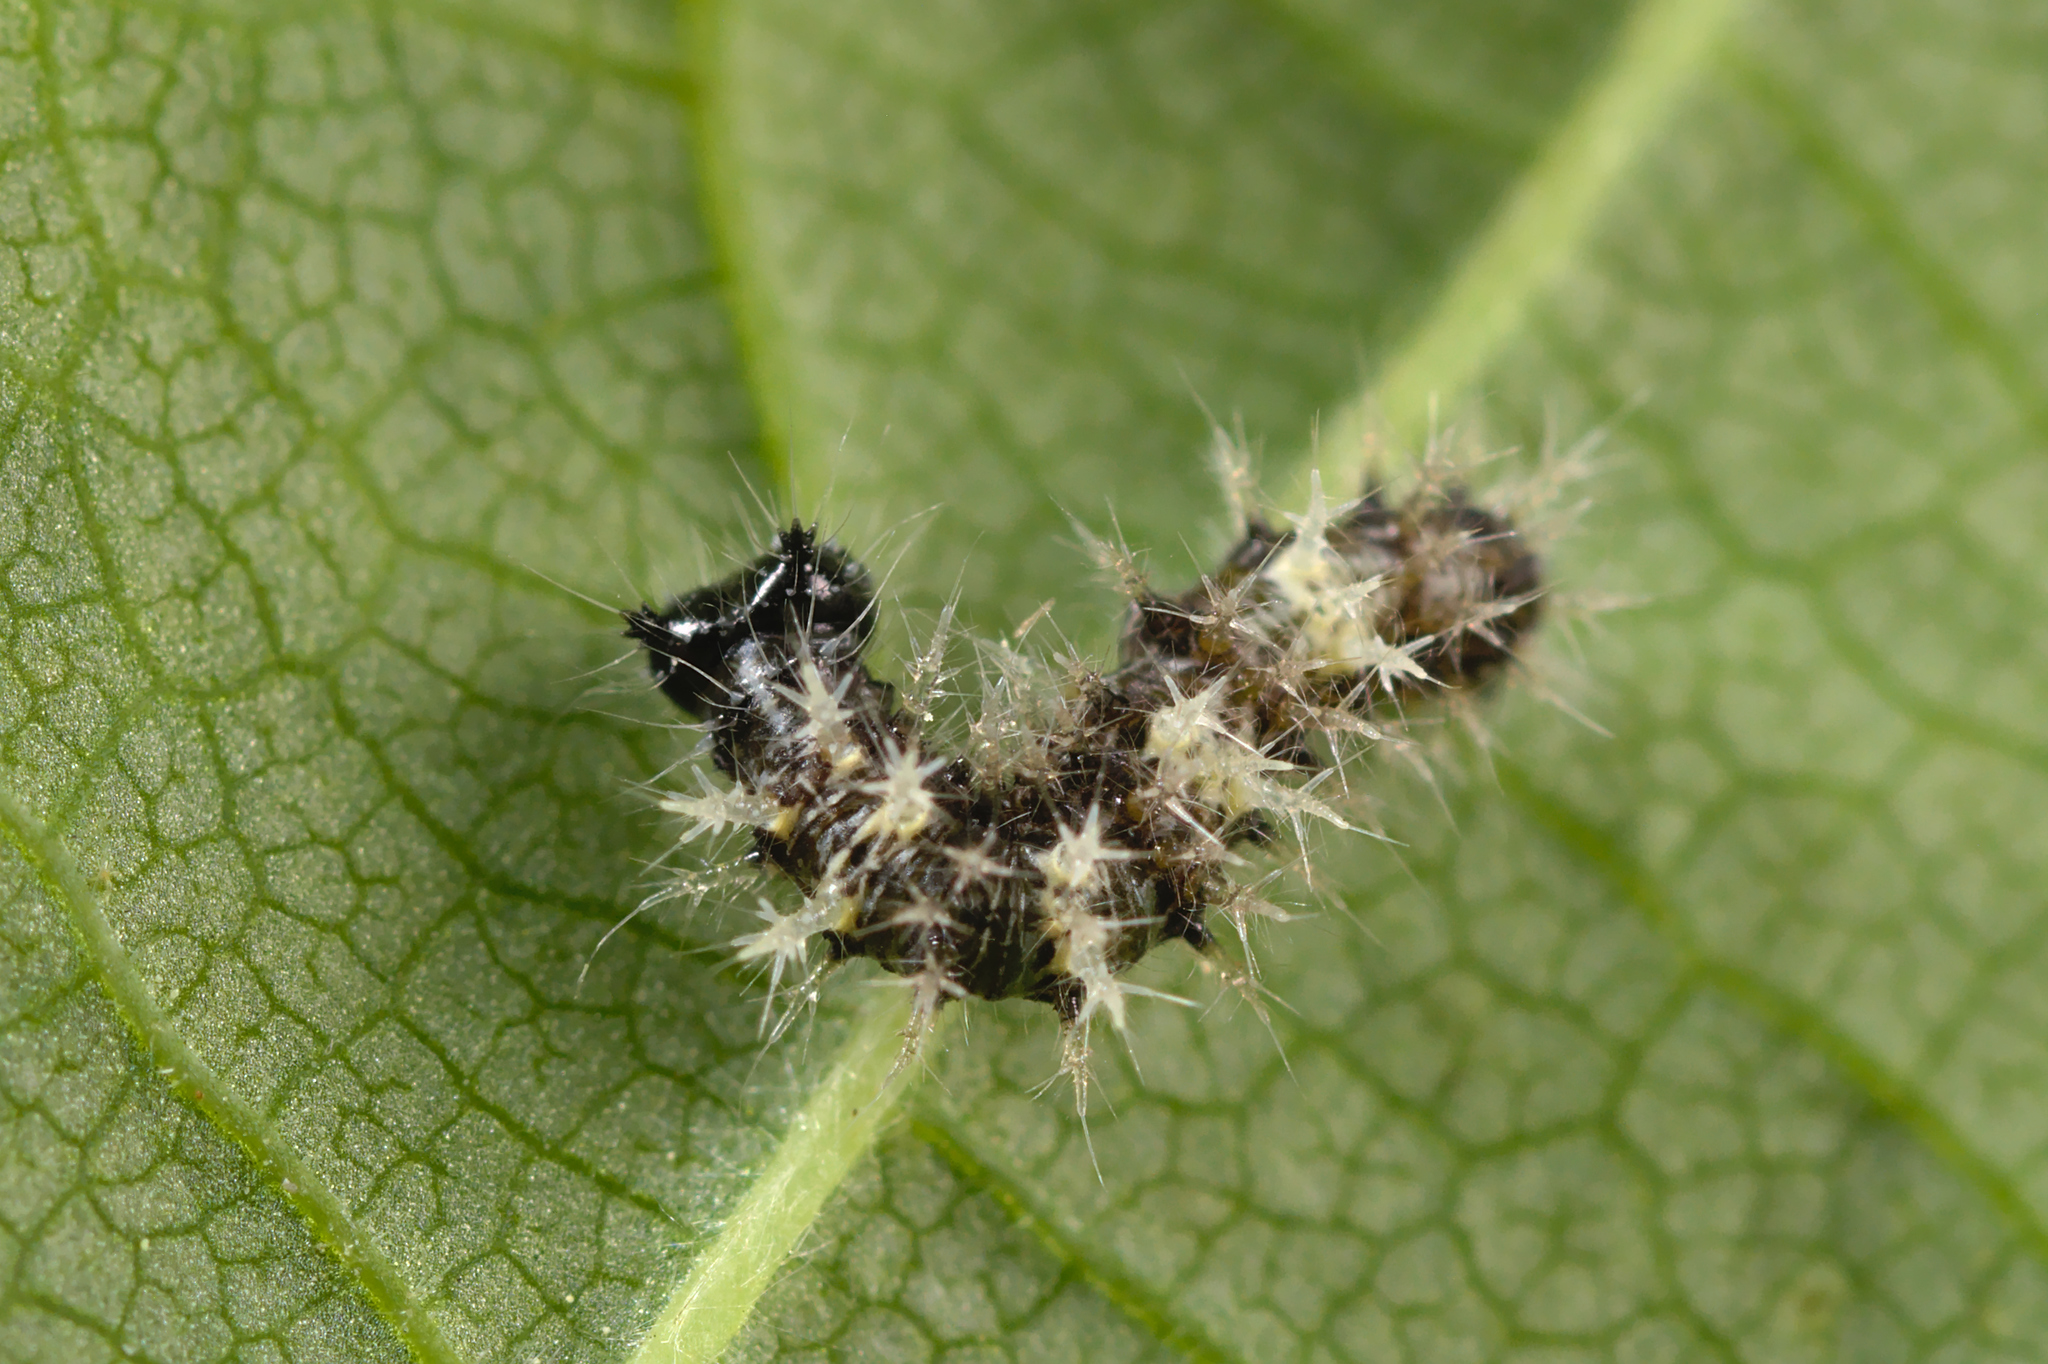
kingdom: Animalia
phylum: Arthropoda
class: Insecta
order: Lepidoptera
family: Nymphalidae
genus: Polygonia
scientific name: Polygonia c-album
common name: Comma
